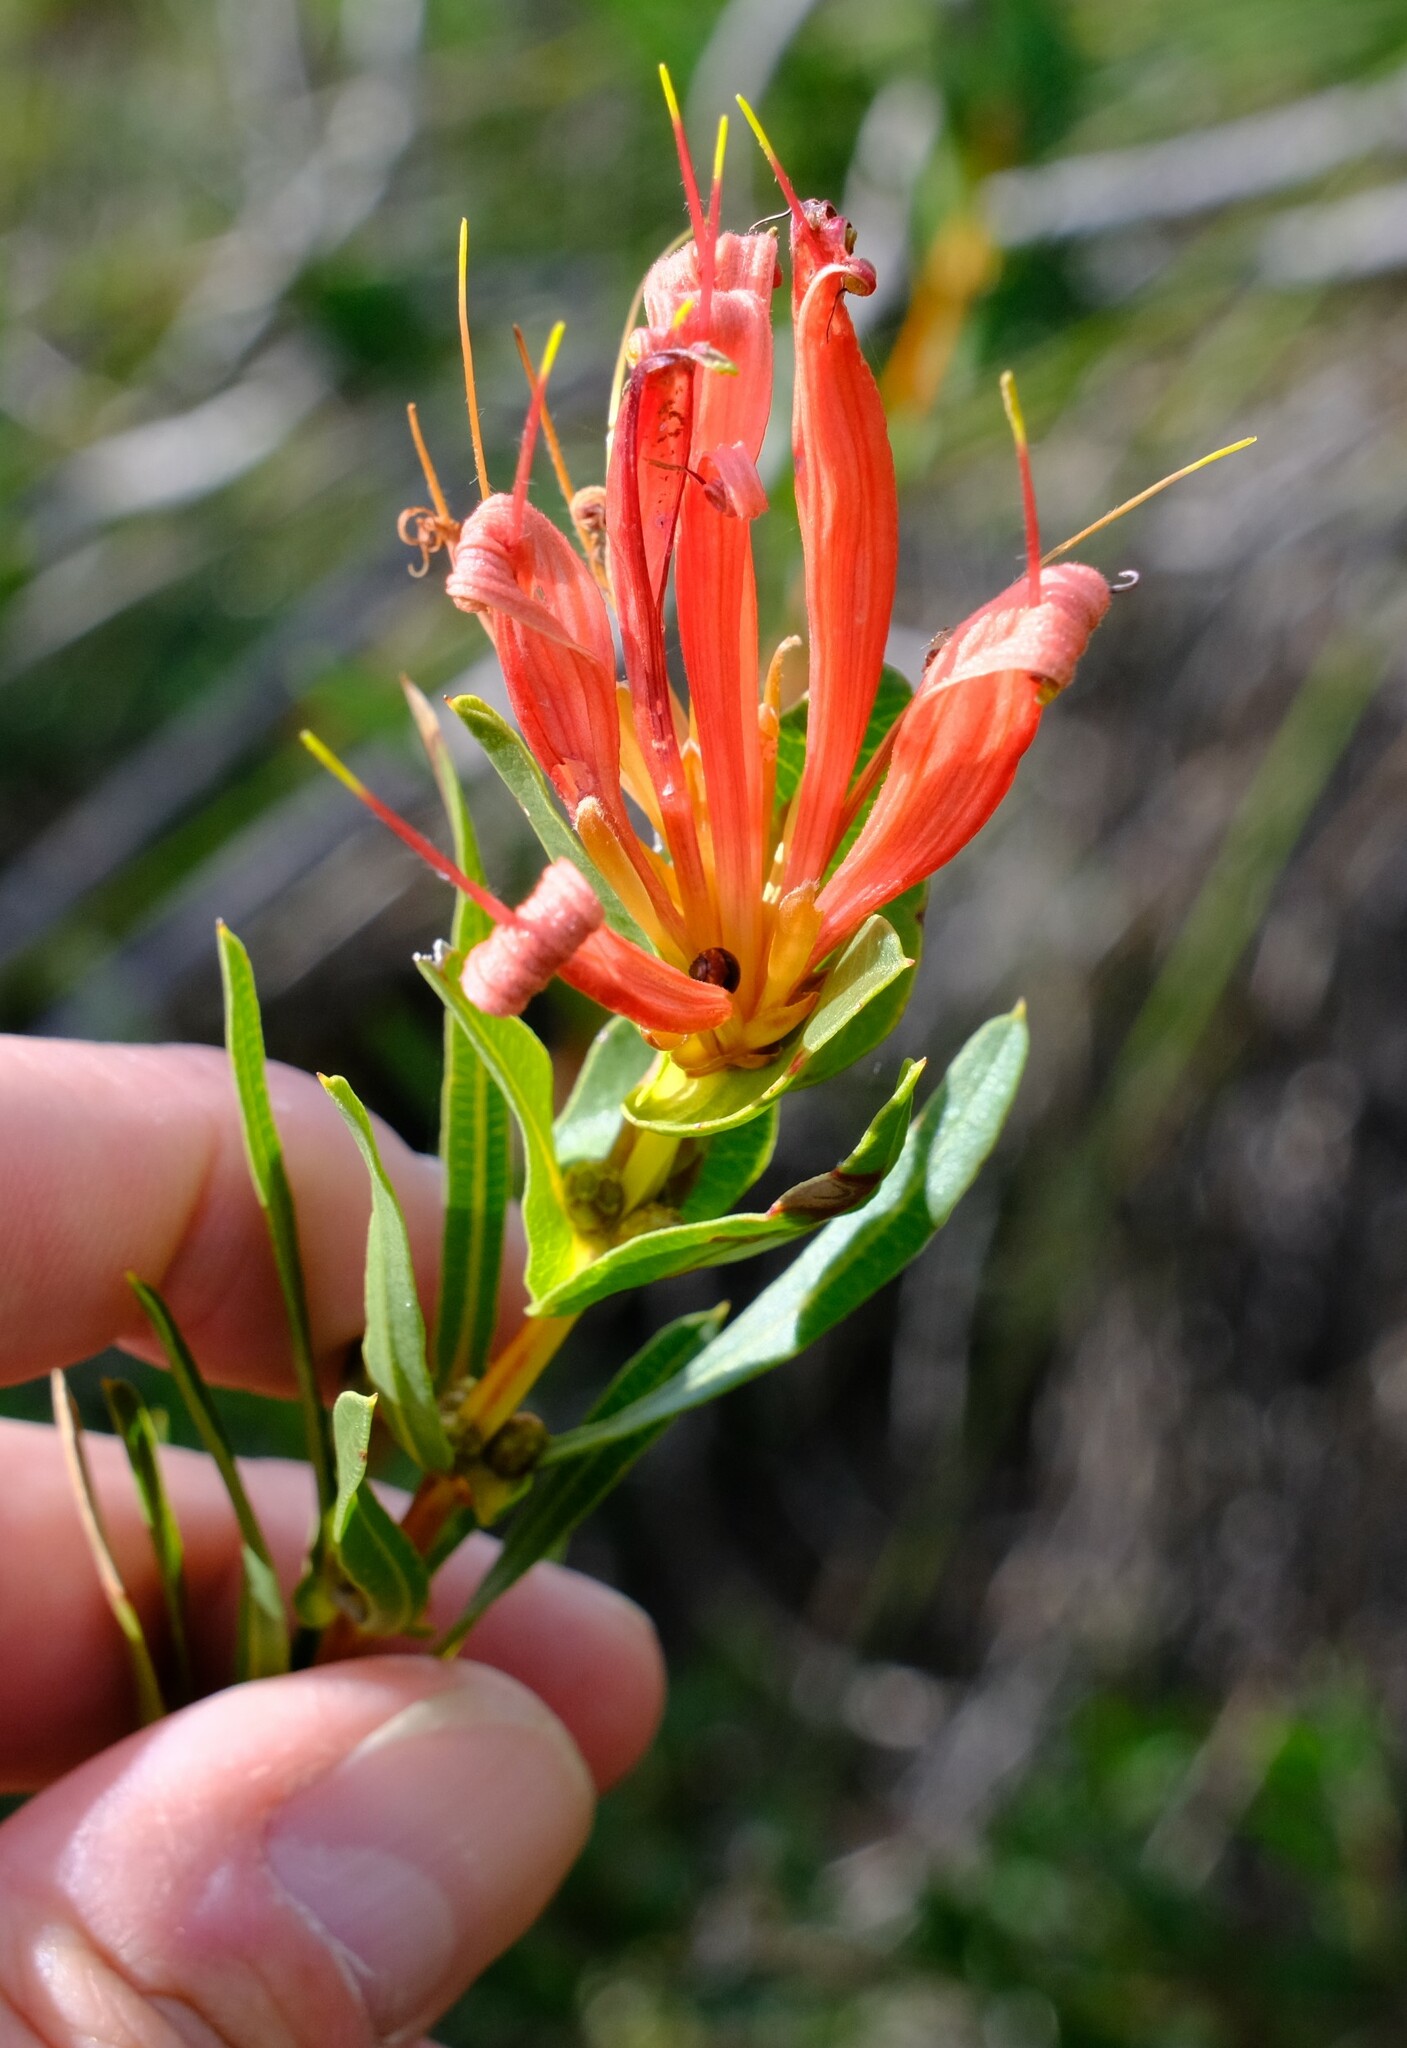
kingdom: Plantae
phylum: Tracheophyta
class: Magnoliopsida
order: Proteales
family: Proteaceae
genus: Lambertia
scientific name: Lambertia multiflora
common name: Many-flowered honeysuckle
